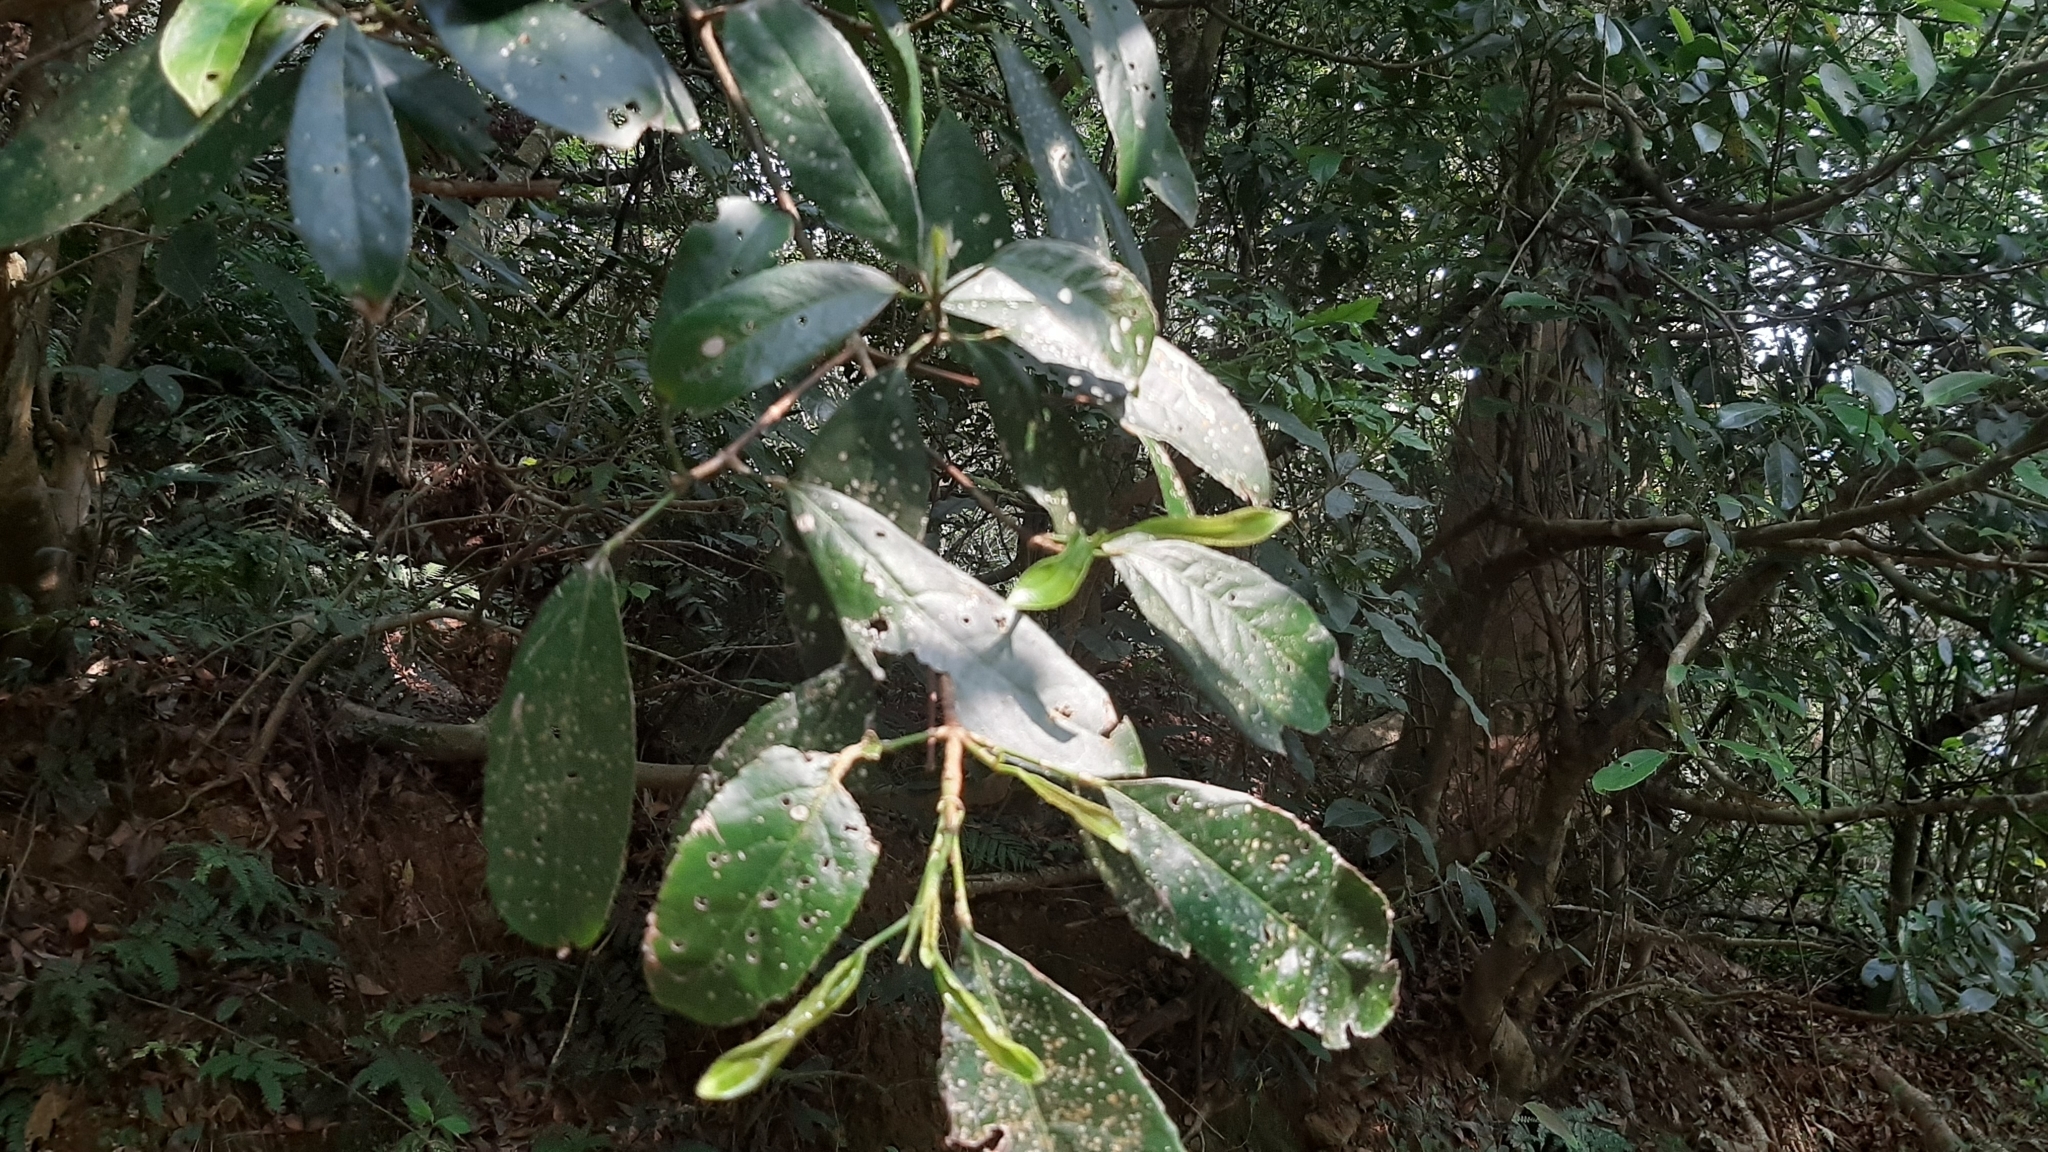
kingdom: Plantae
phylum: Tracheophyta
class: Magnoliopsida
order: Crossosomatales
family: Staphyleaceae
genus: Turpinia
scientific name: Turpinia formosana
